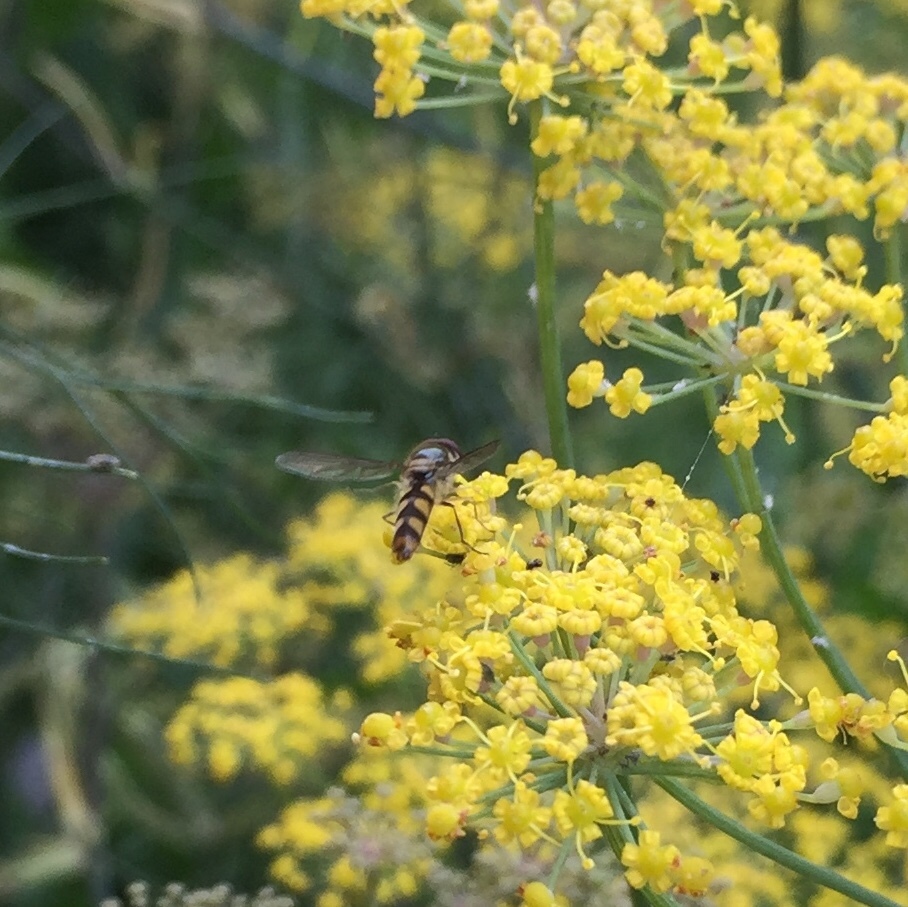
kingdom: Animalia
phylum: Arthropoda
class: Insecta
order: Diptera
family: Syrphidae
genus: Meliscaeva
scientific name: Meliscaeva auricollis
